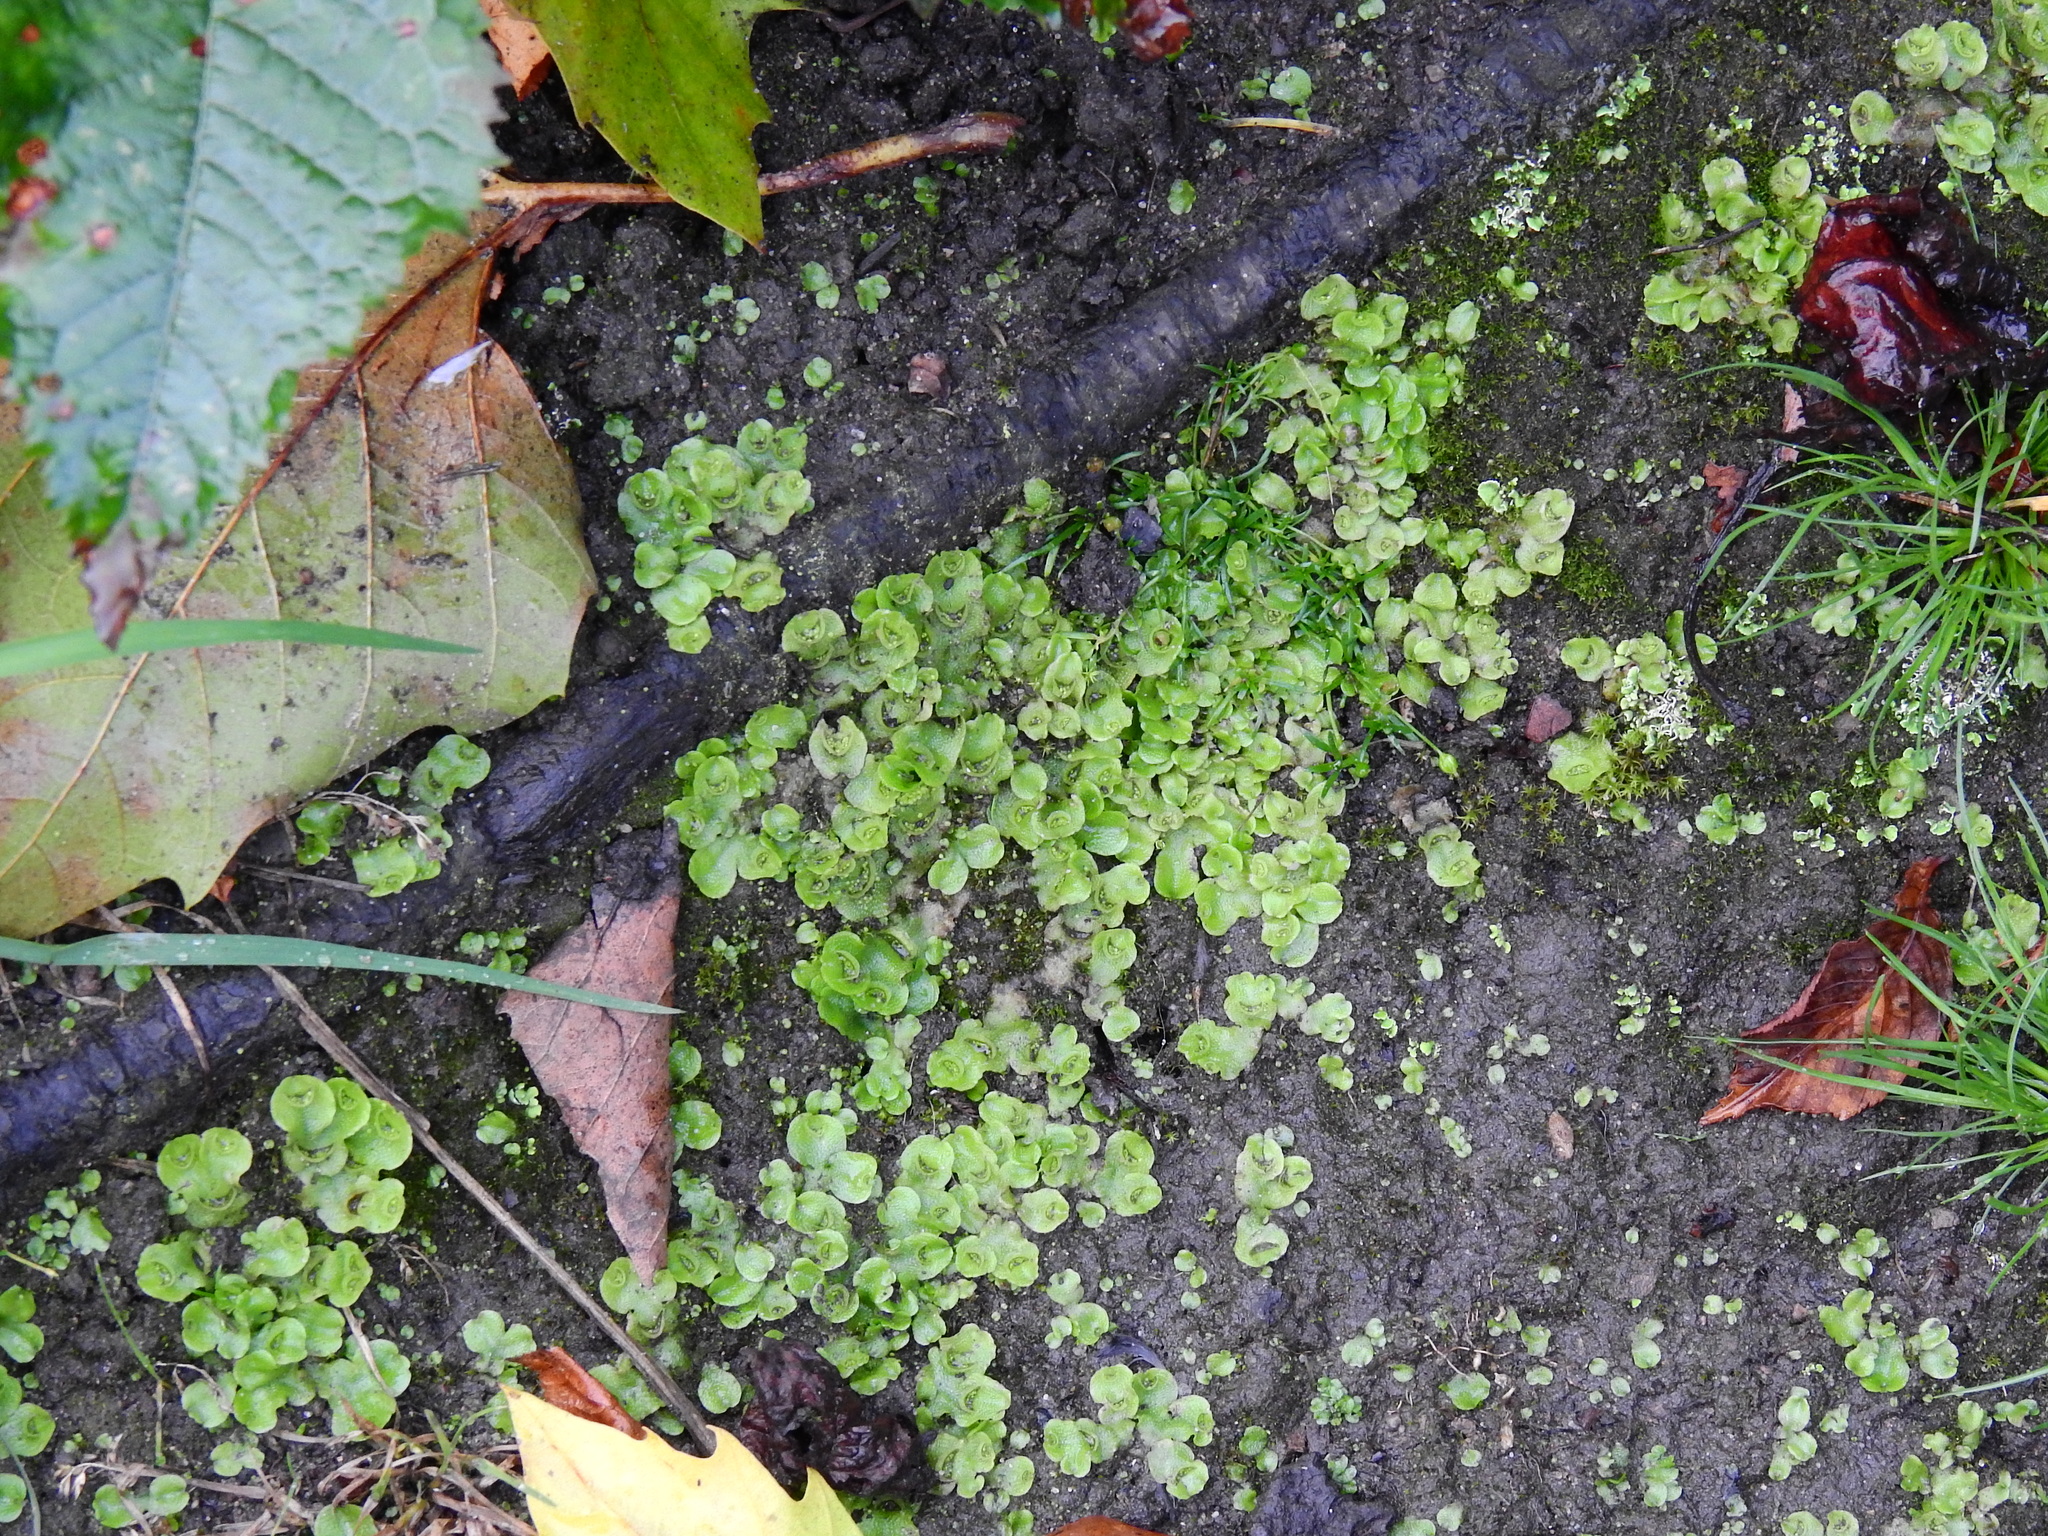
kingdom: Plantae
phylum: Marchantiophyta
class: Marchantiopsida
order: Lunulariales
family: Lunulariaceae
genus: Lunularia
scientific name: Lunularia cruciata
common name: Crescent-cup liverwort
